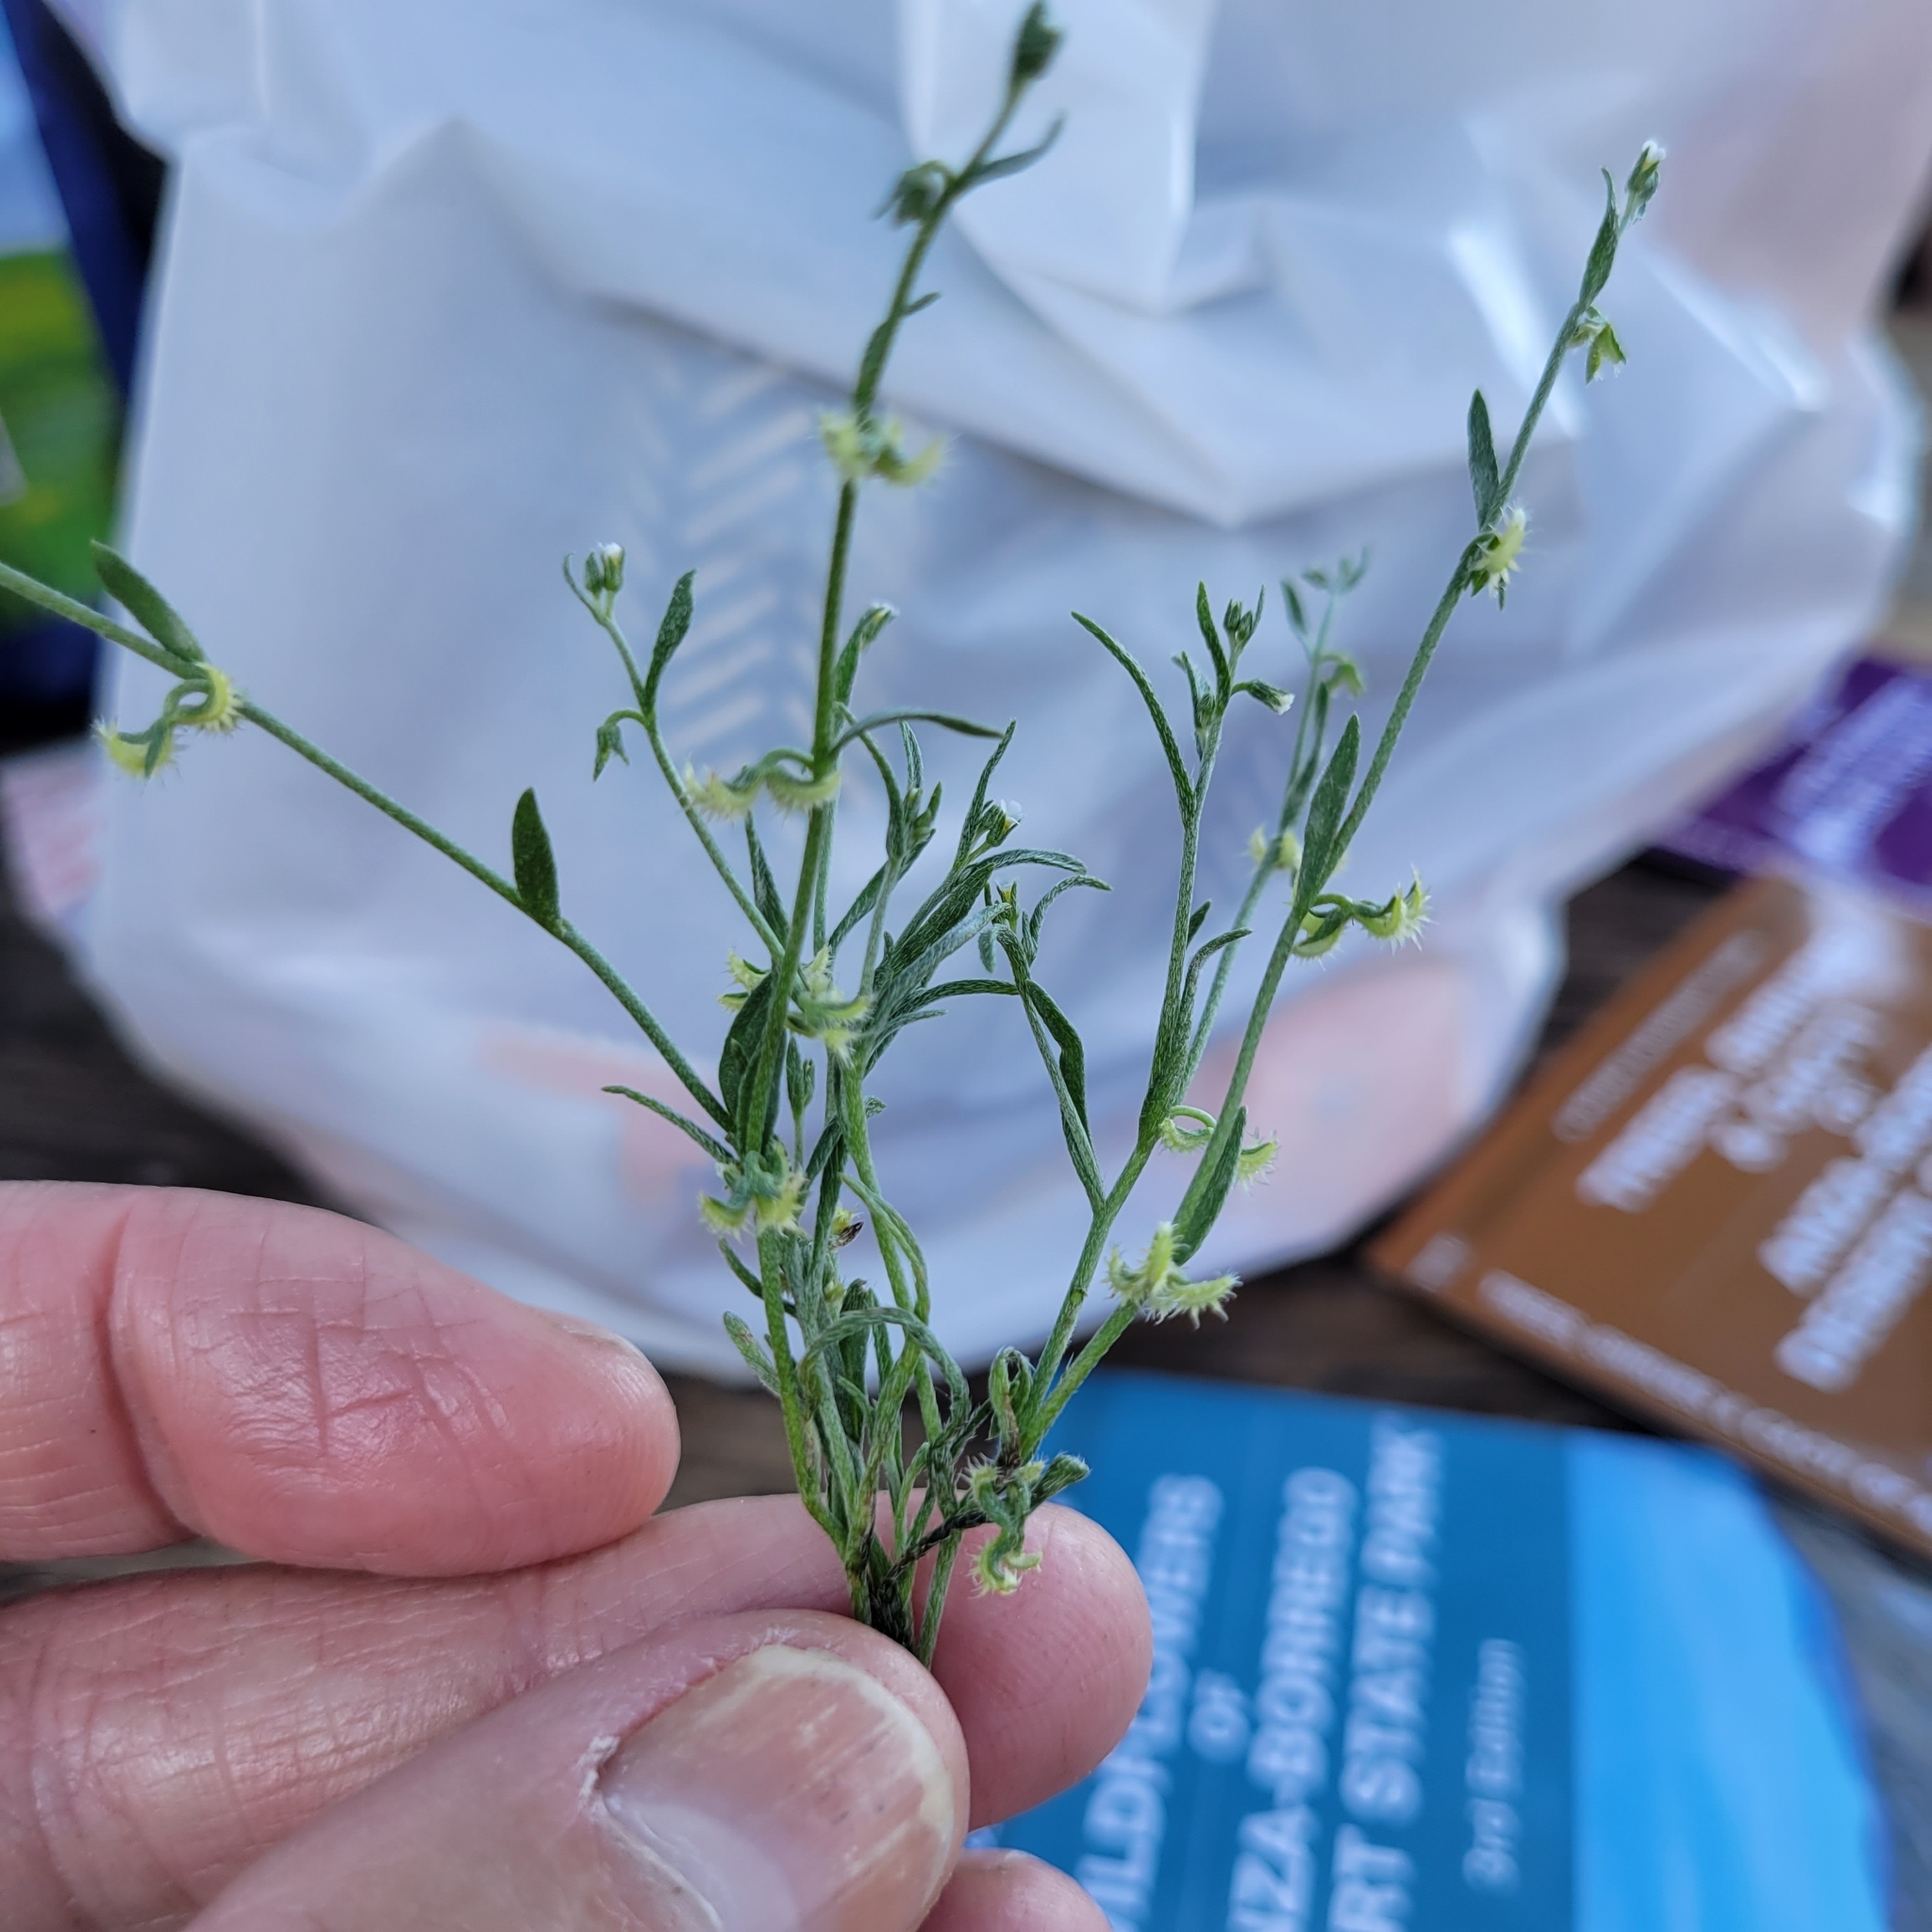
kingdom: Plantae
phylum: Tracheophyta
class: Magnoliopsida
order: Boraginales
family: Boraginaceae
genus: Pectocarya
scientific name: Pectocarya recurvata
